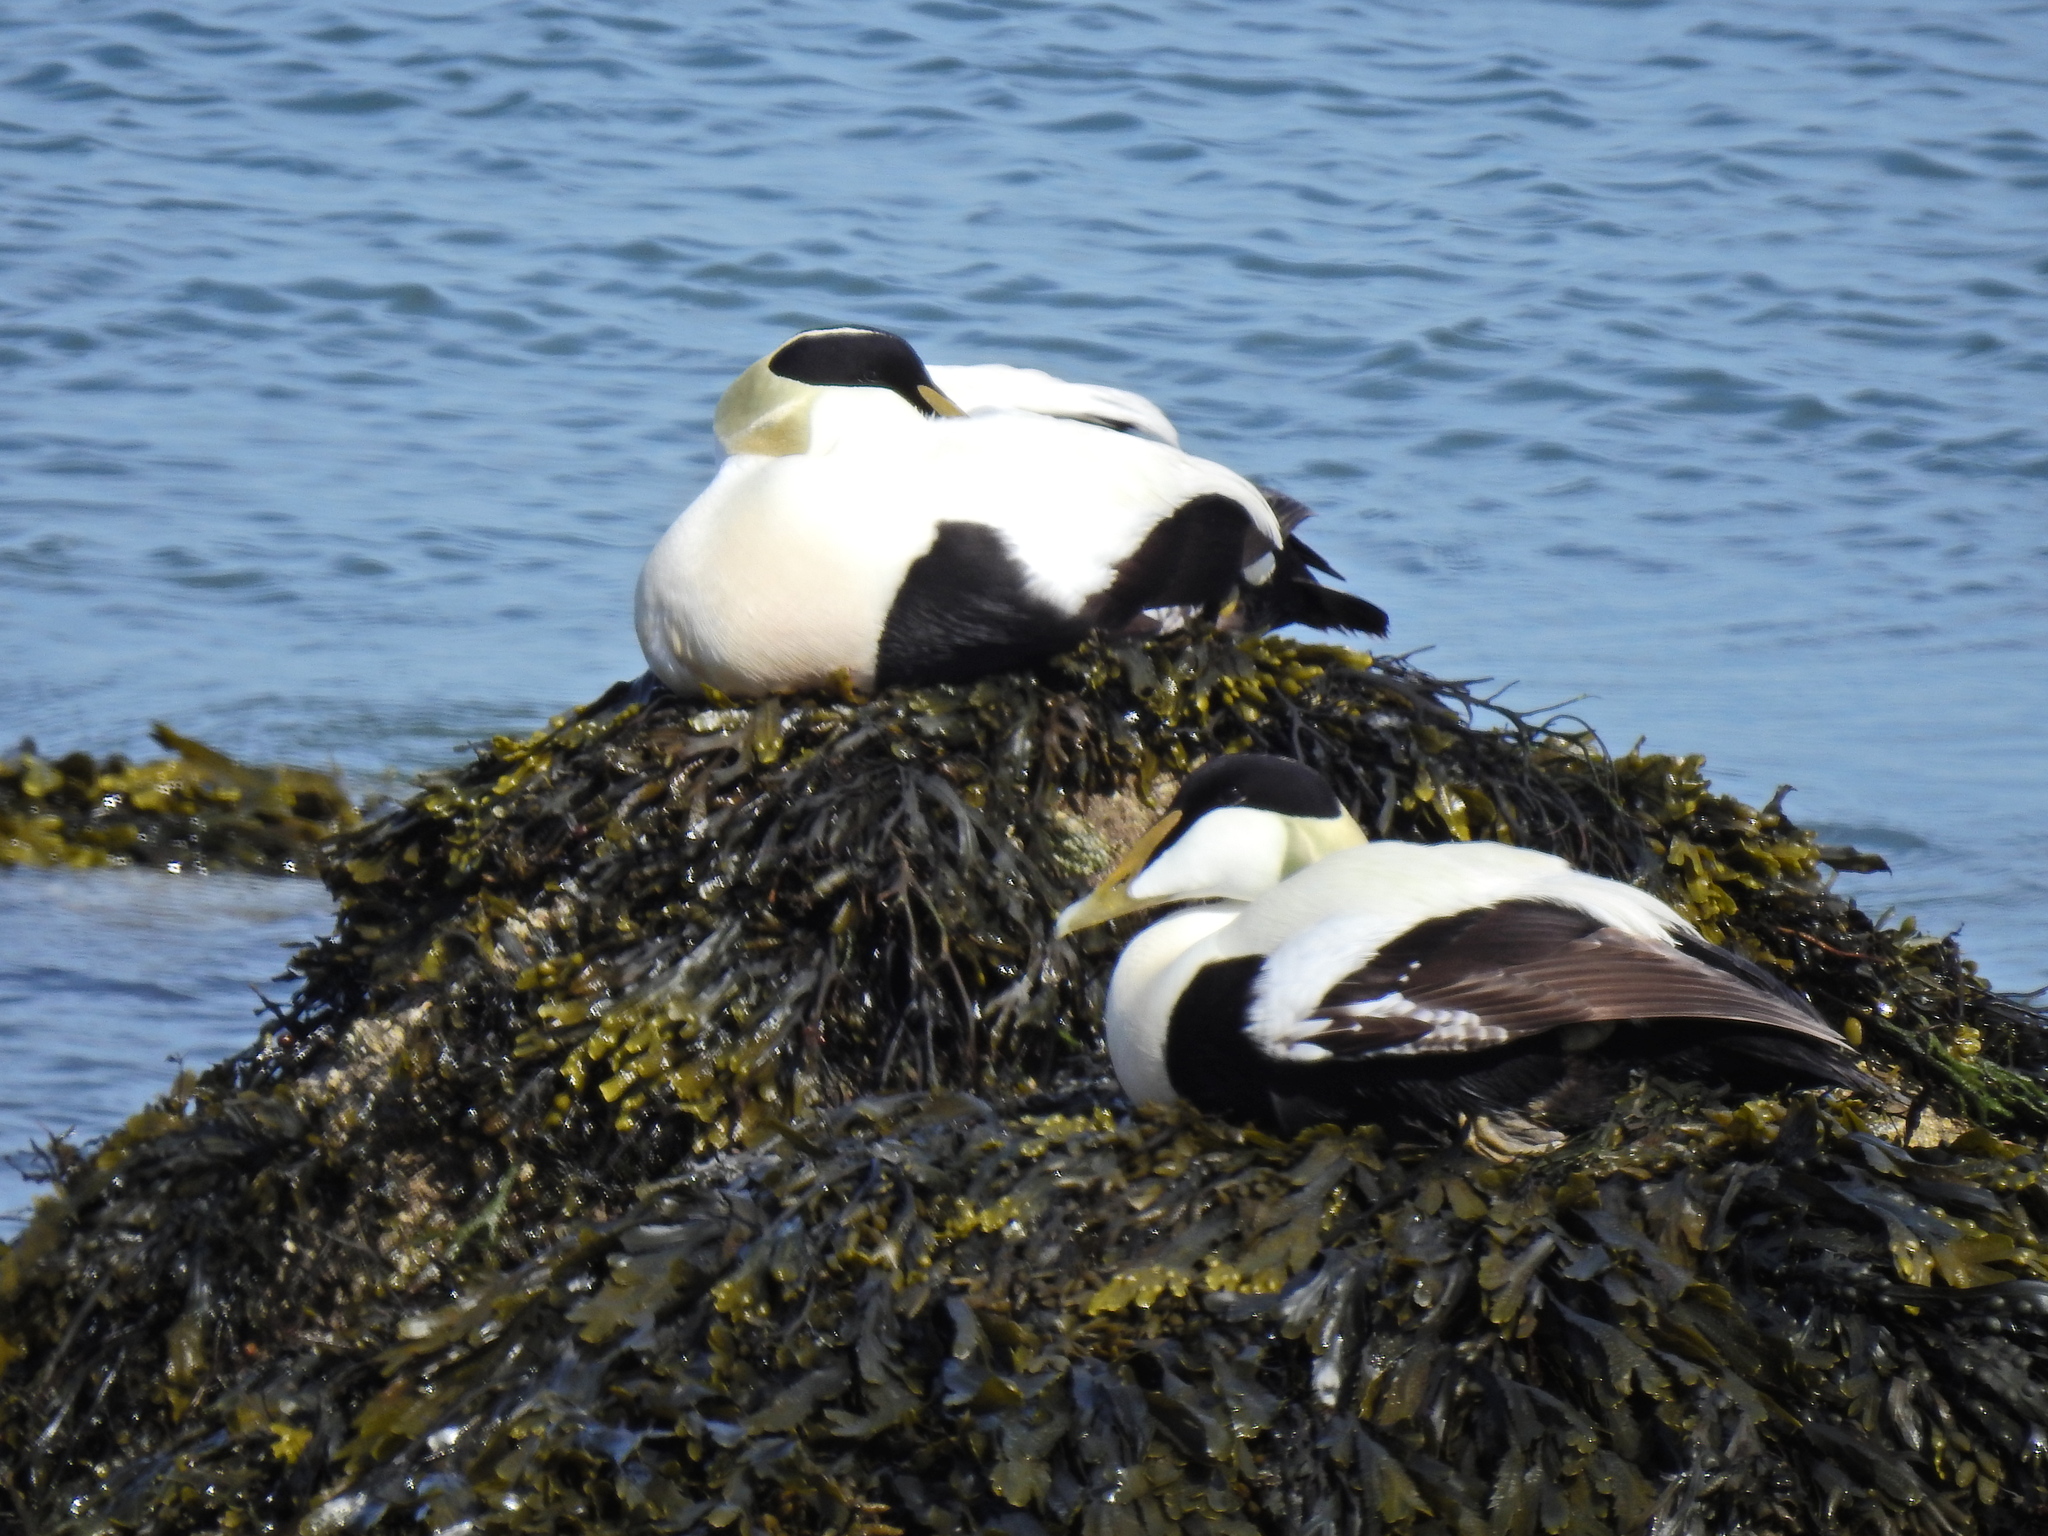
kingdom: Animalia
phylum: Chordata
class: Aves
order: Anseriformes
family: Anatidae
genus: Somateria
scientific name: Somateria mollissima
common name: Common eider
